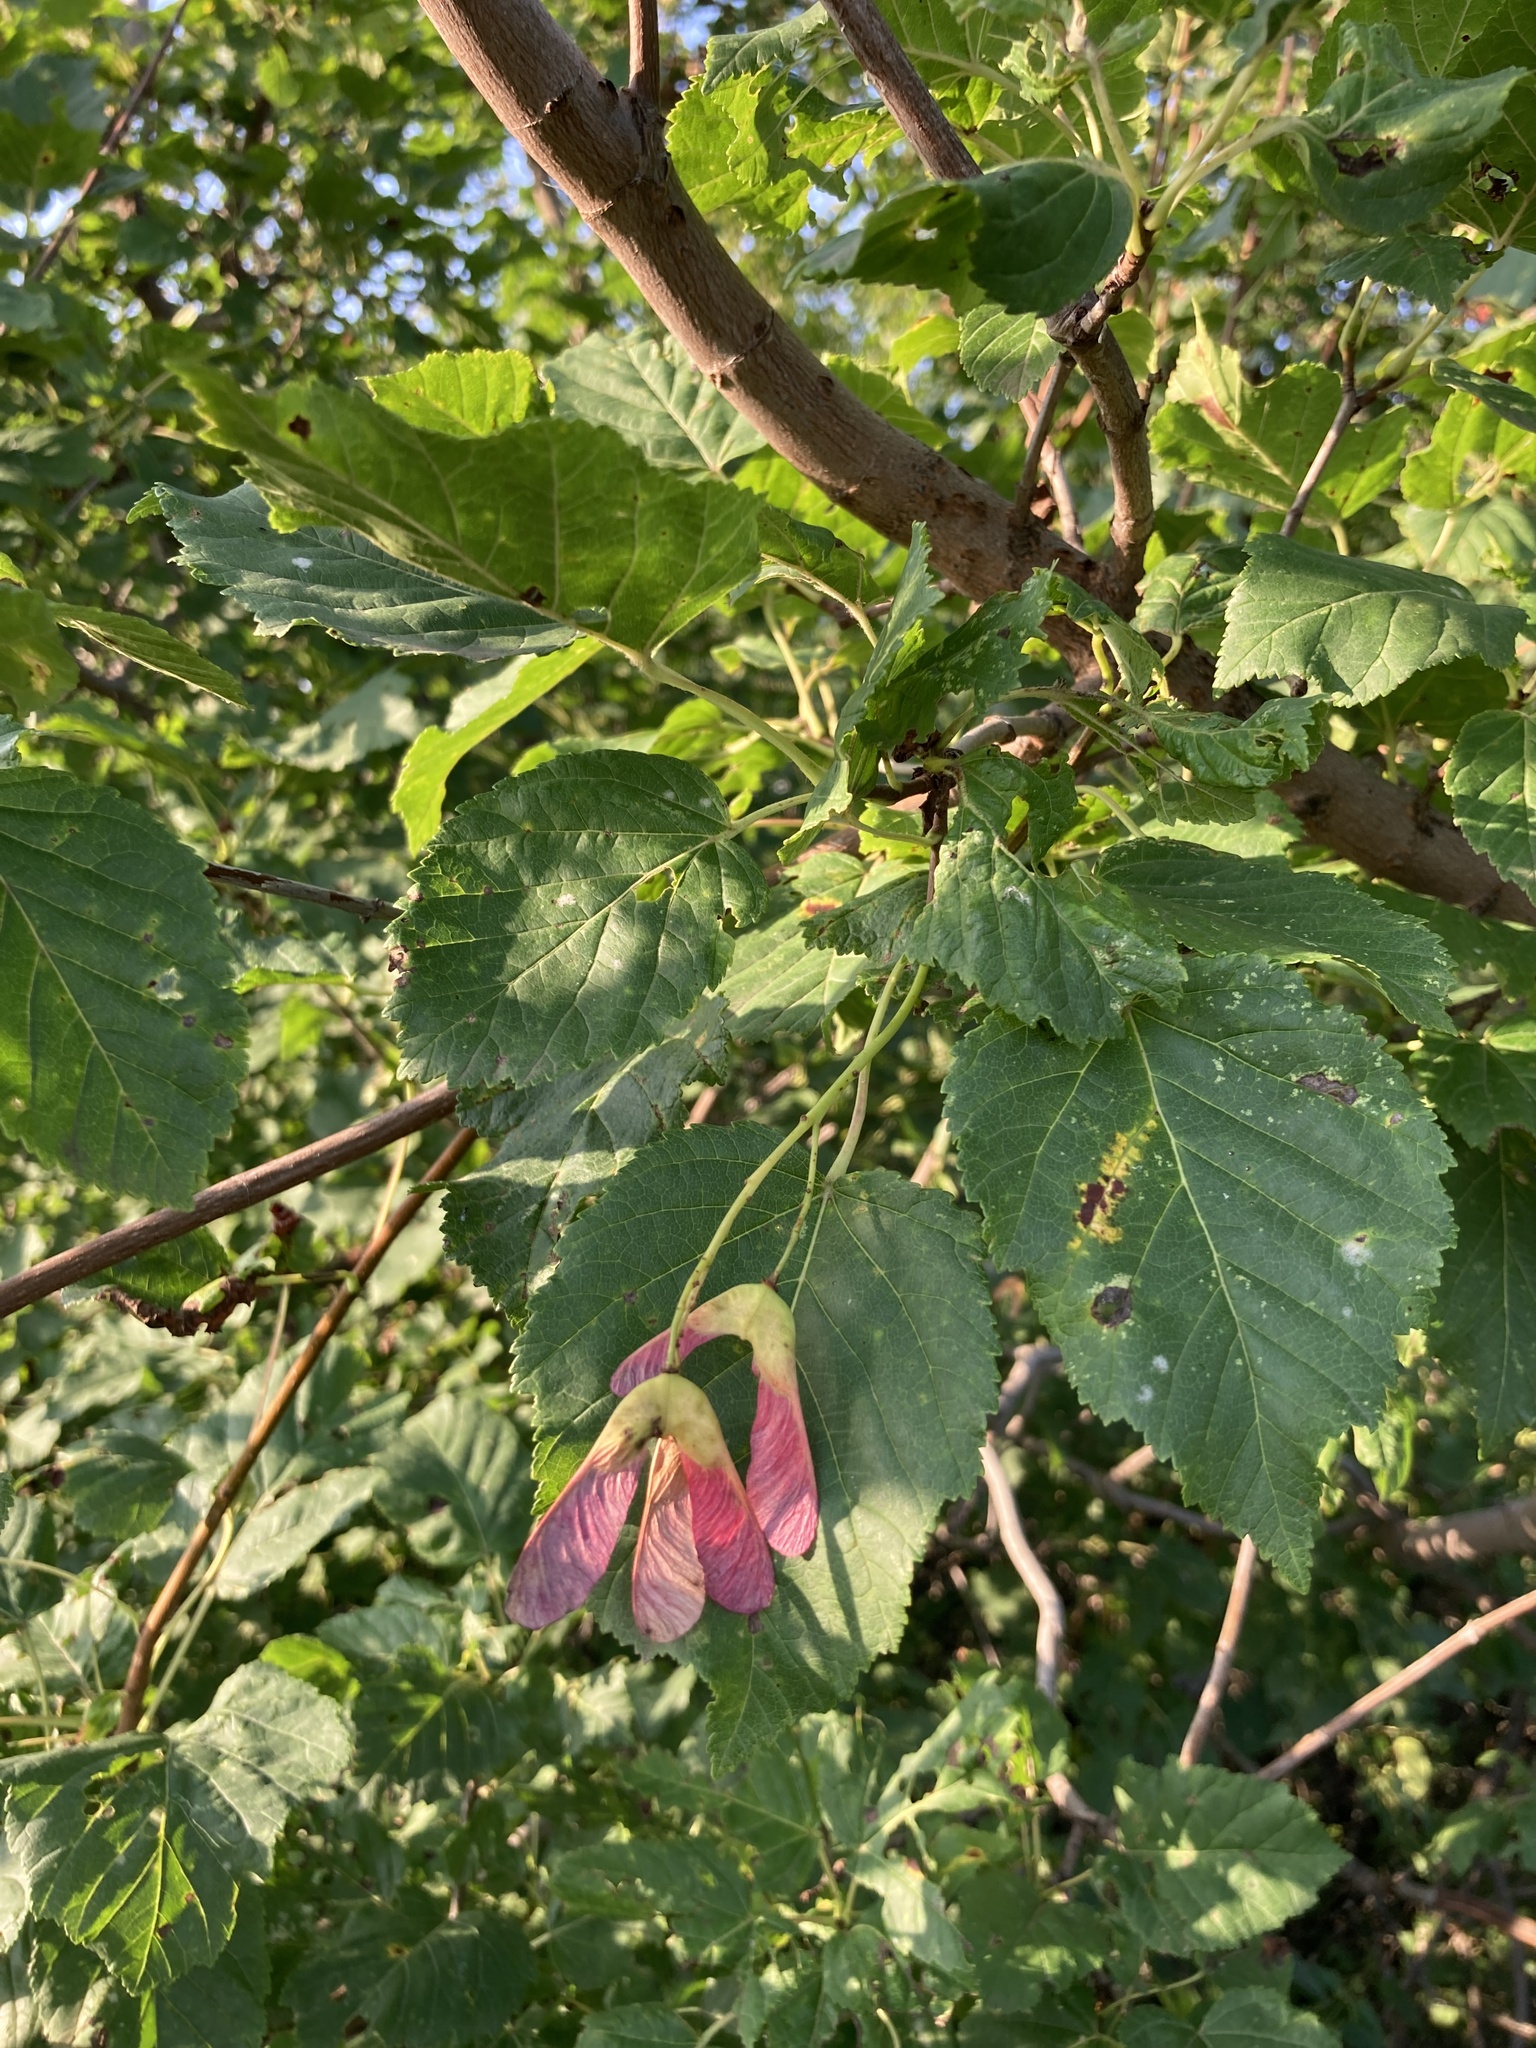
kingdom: Plantae
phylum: Tracheophyta
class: Magnoliopsida
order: Sapindales
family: Sapindaceae
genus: Acer
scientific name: Acer tataricum
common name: Tartar maple
